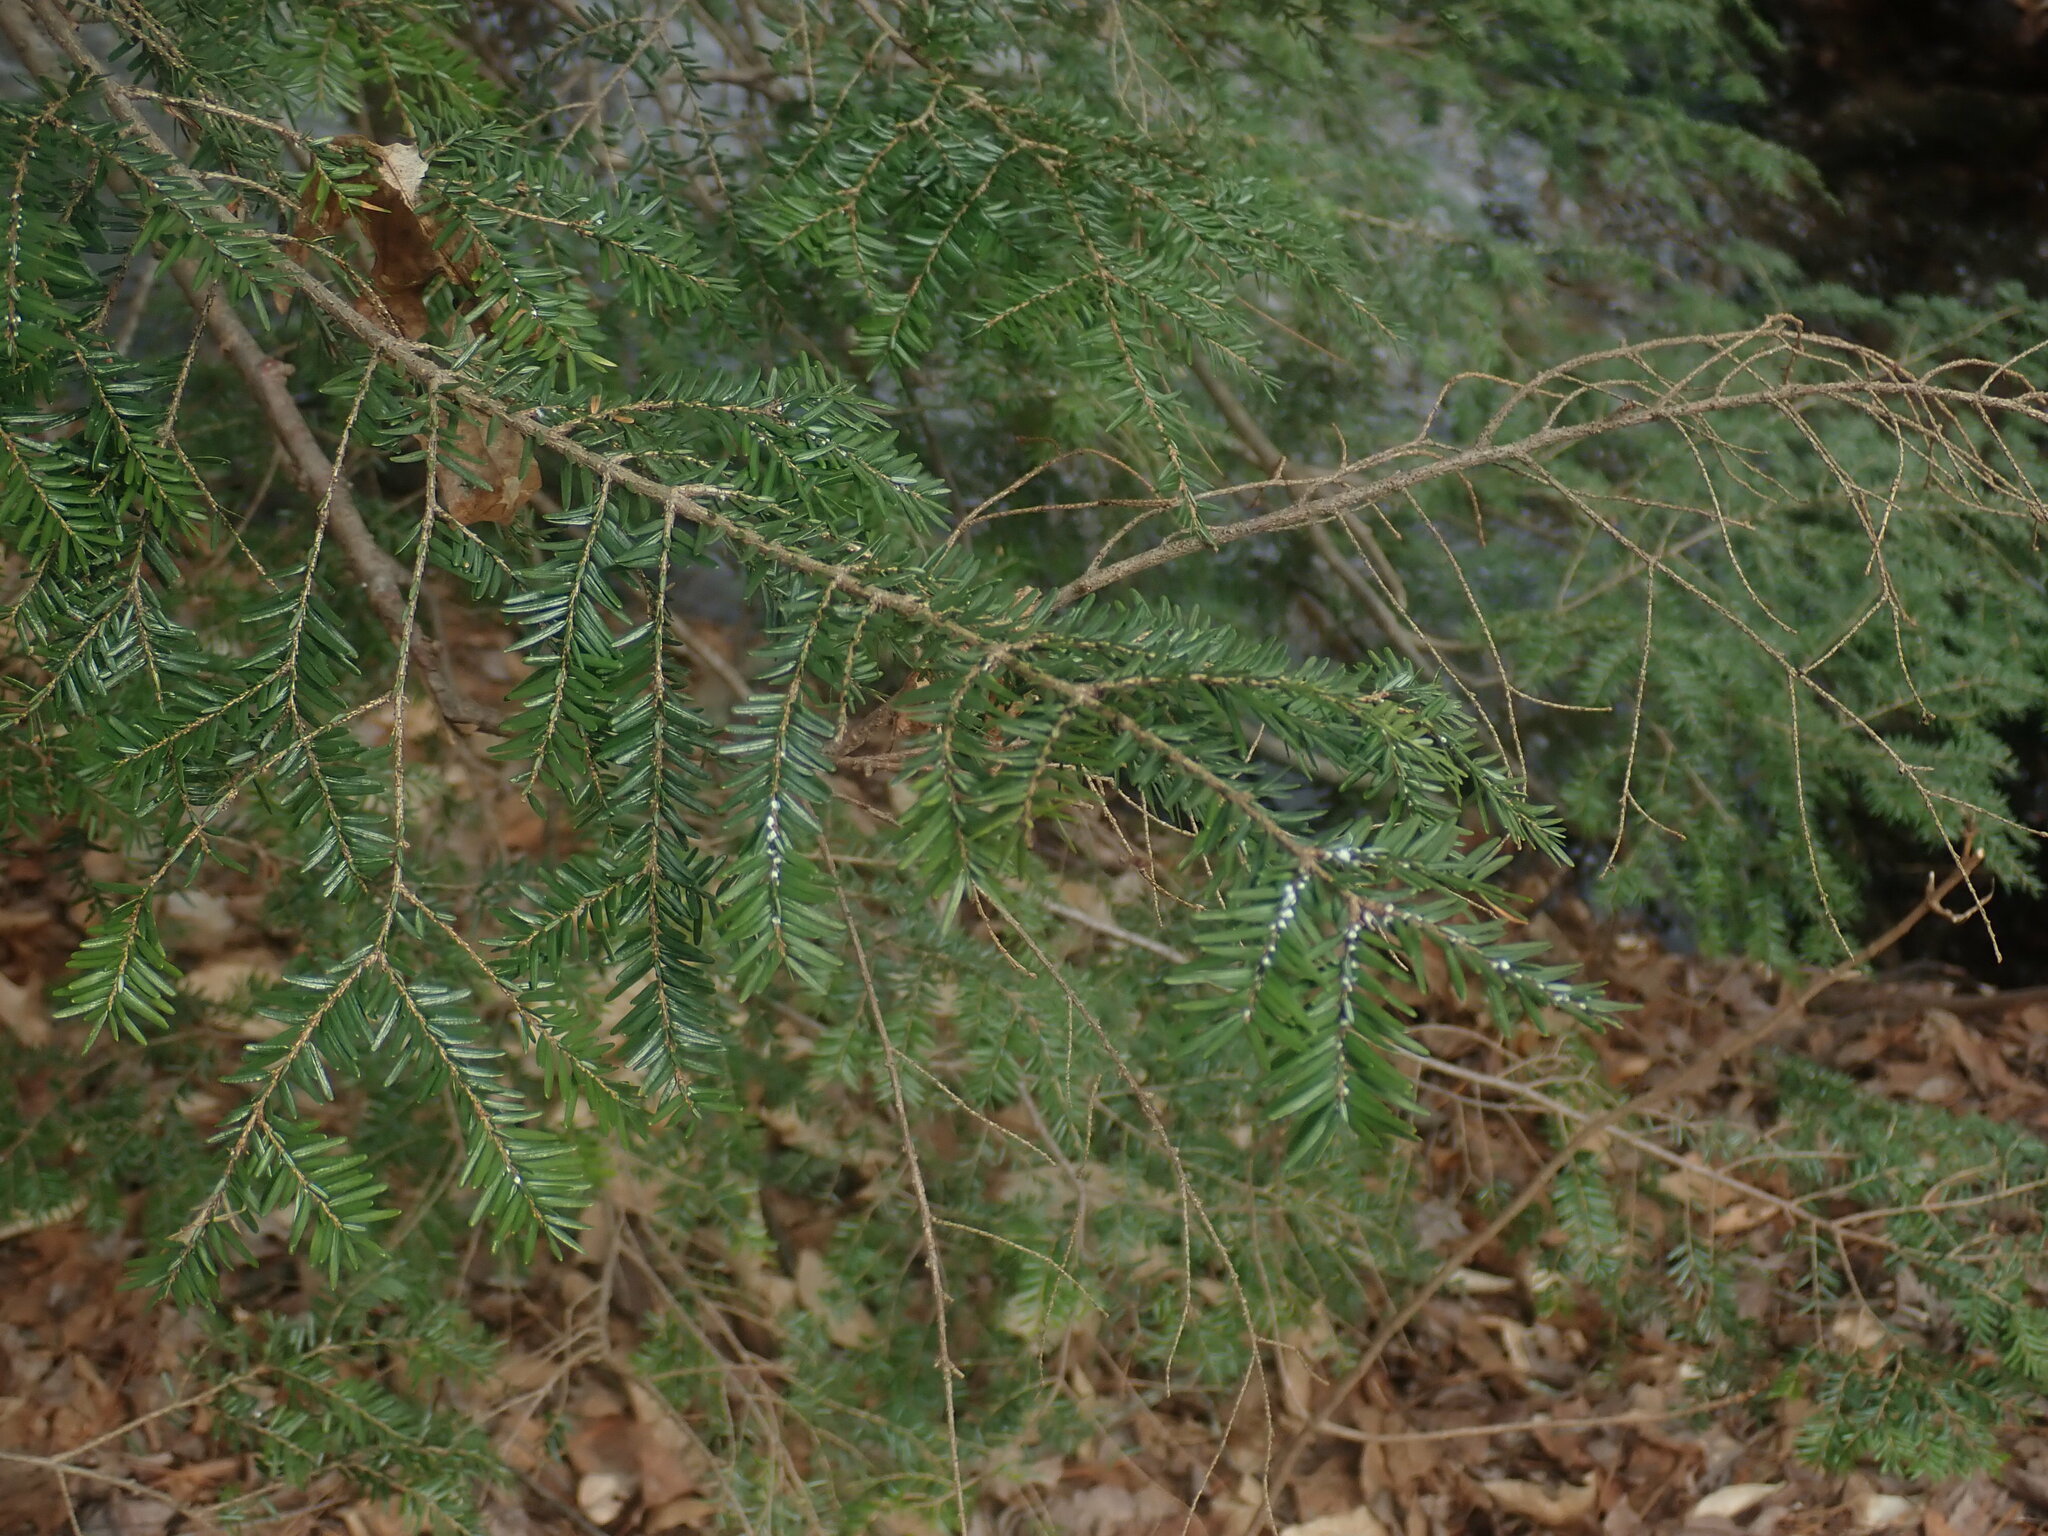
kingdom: Plantae
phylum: Tracheophyta
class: Pinopsida
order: Pinales
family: Pinaceae
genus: Tsuga
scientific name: Tsuga canadensis
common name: Eastern hemlock
